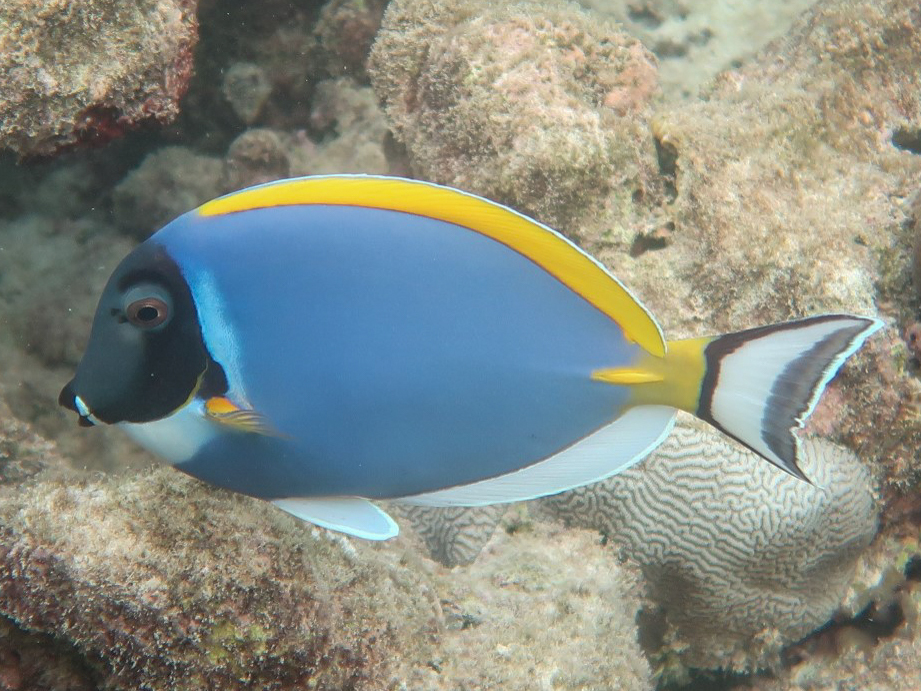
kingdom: Animalia
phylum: Chordata
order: Perciformes
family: Acanthuridae
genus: Acanthurus
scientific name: Acanthurus leucosternon
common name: Blue surgeonfish
